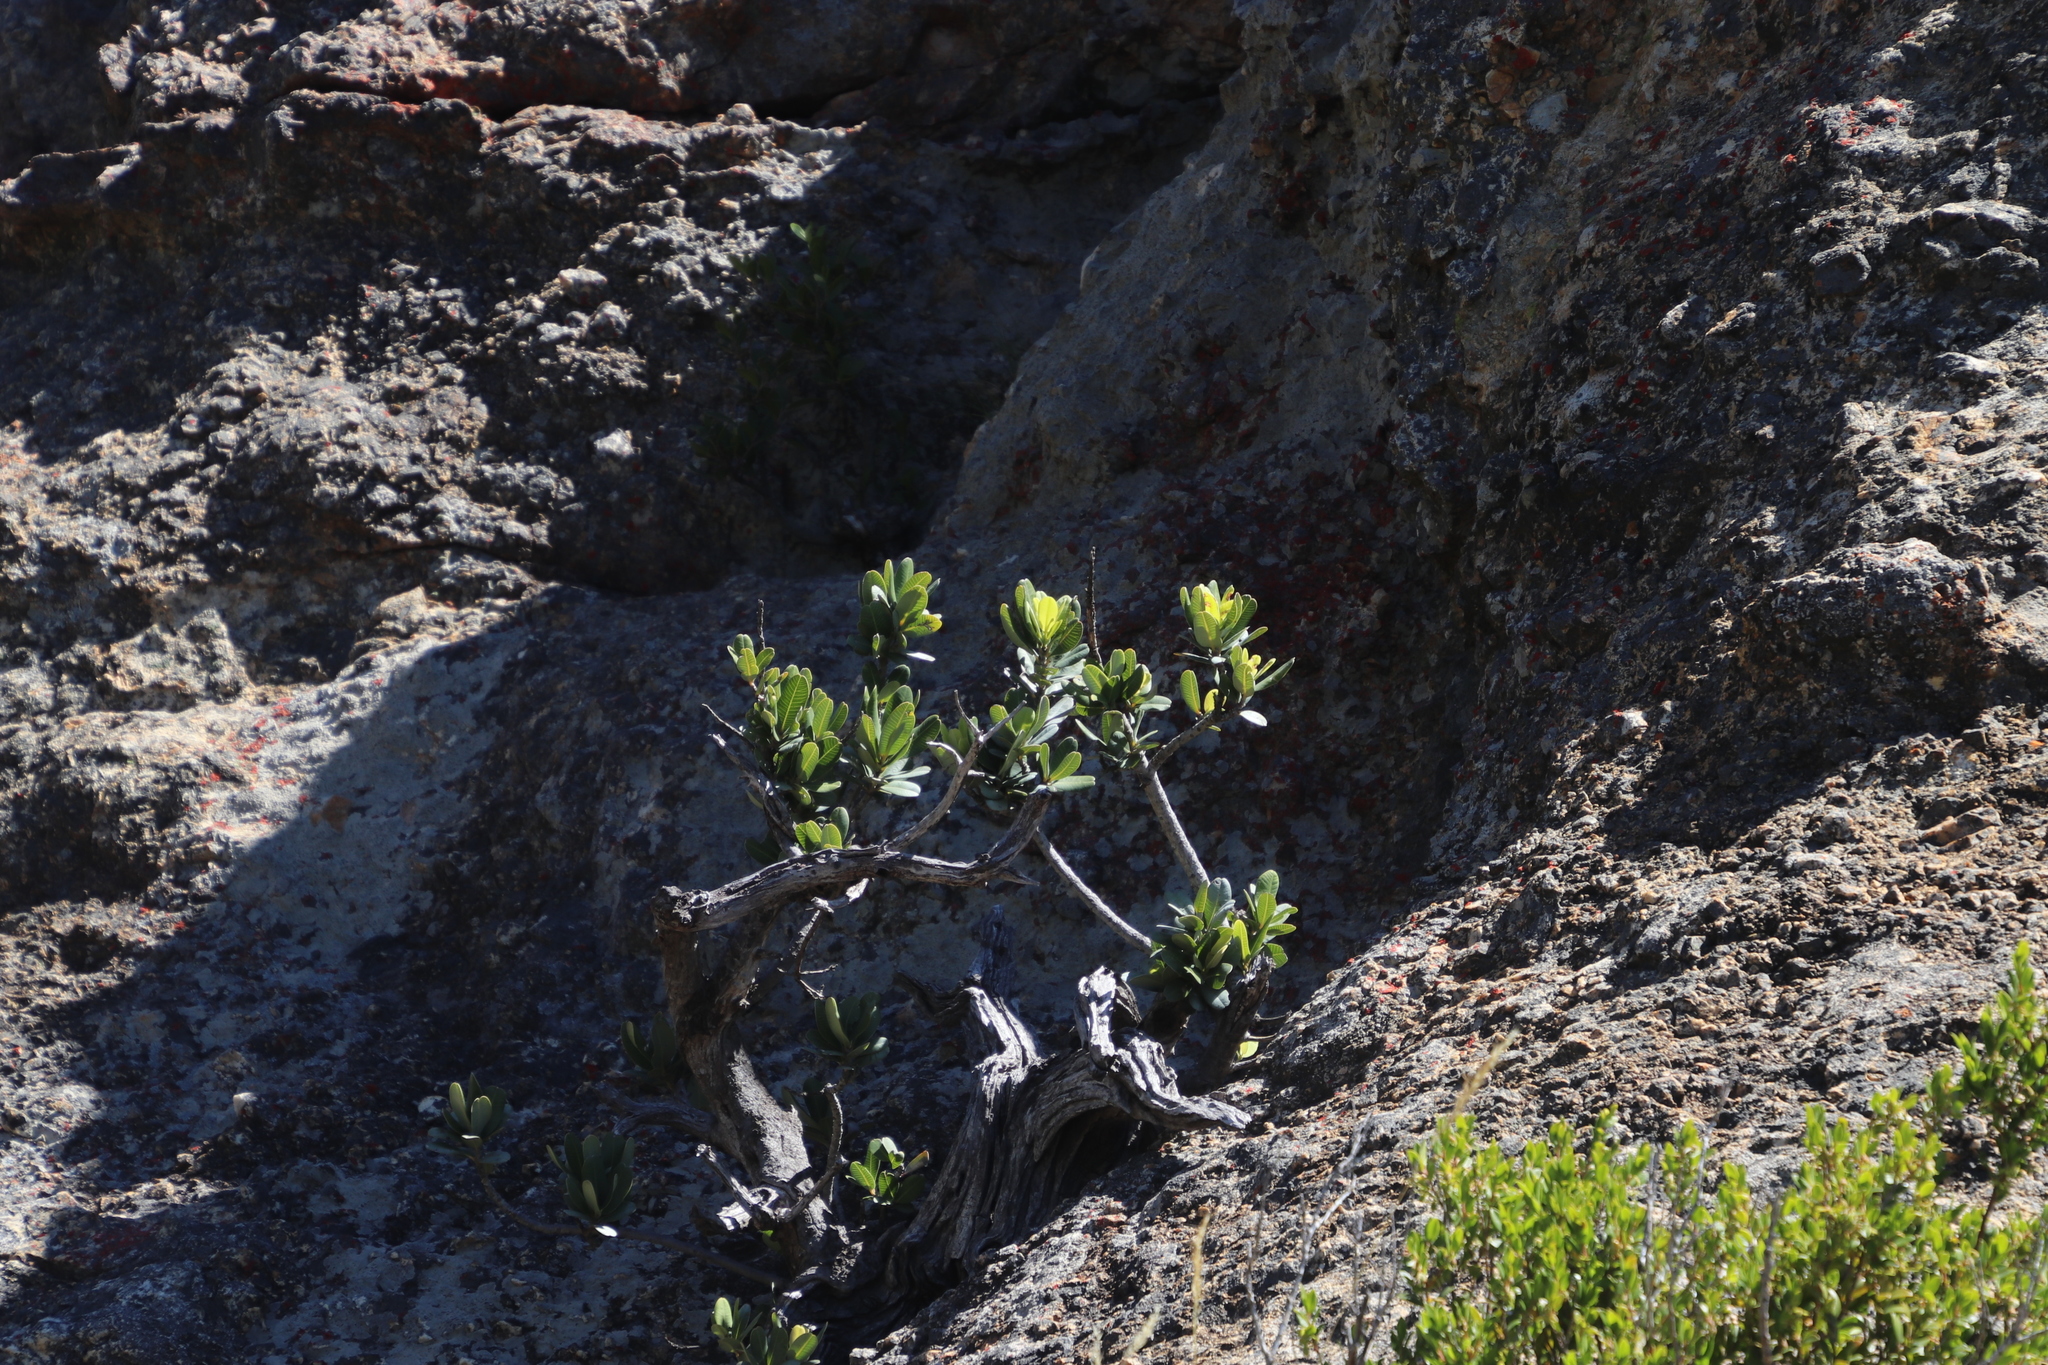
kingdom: Plantae
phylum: Tracheophyta
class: Magnoliopsida
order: Sapindales
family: Anacardiaceae
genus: Heeria
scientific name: Heeria argentea
